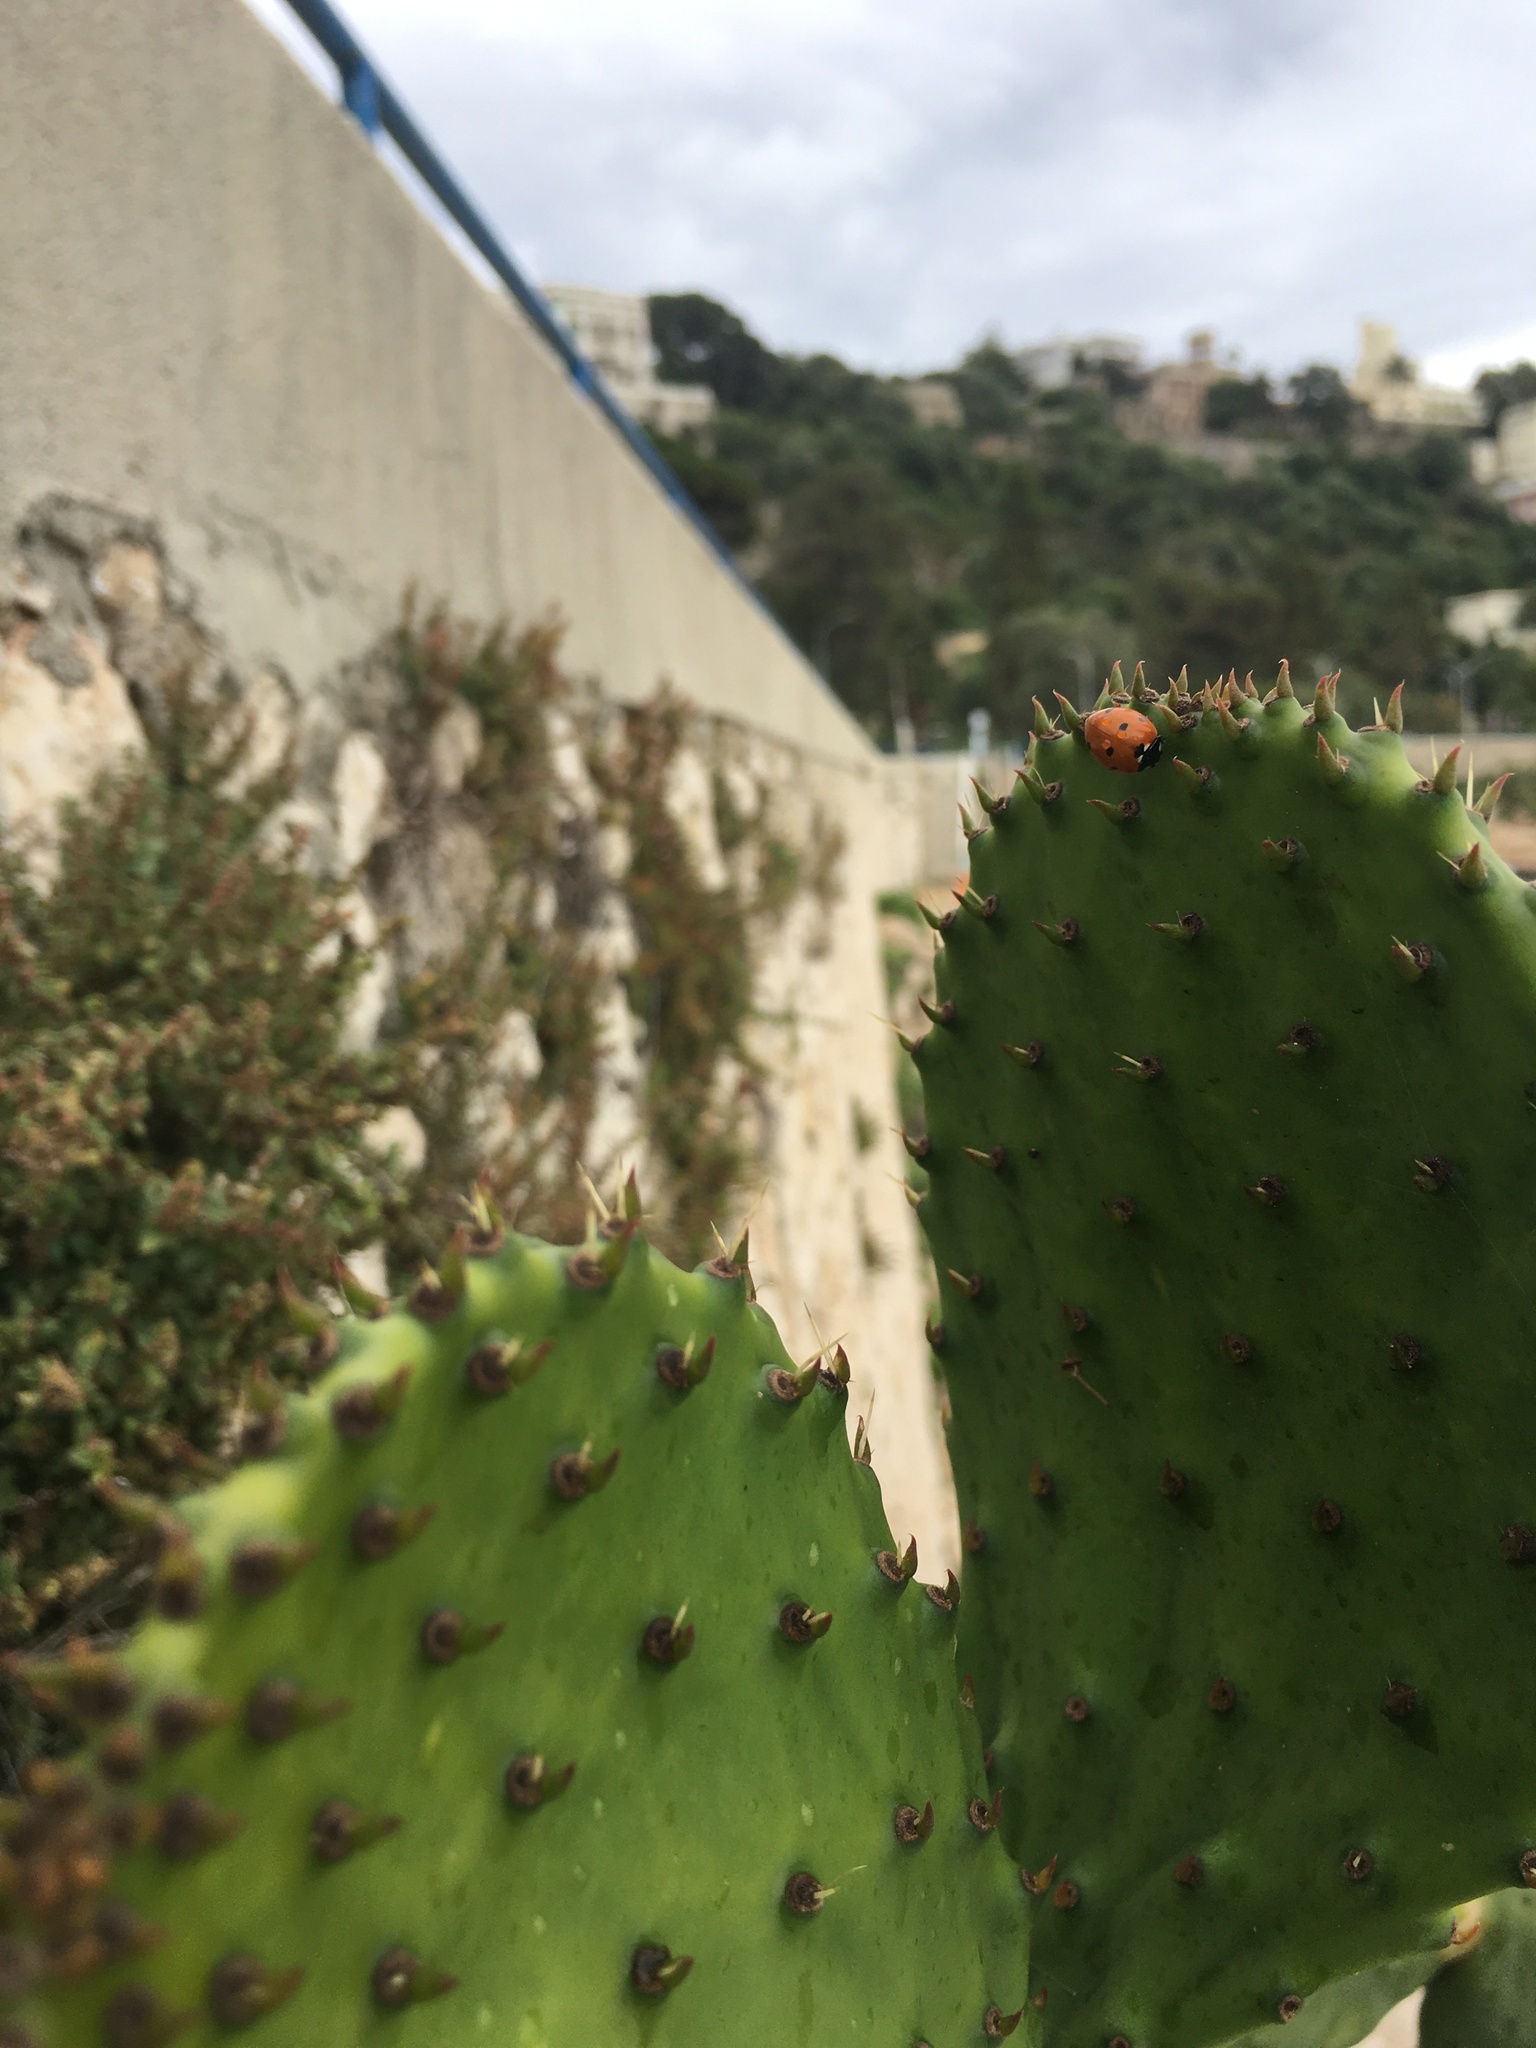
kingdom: Animalia
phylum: Arthropoda
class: Insecta
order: Coleoptera
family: Coccinellidae
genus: Coccinella
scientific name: Coccinella septempunctata
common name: Sevenspotted lady beetle
